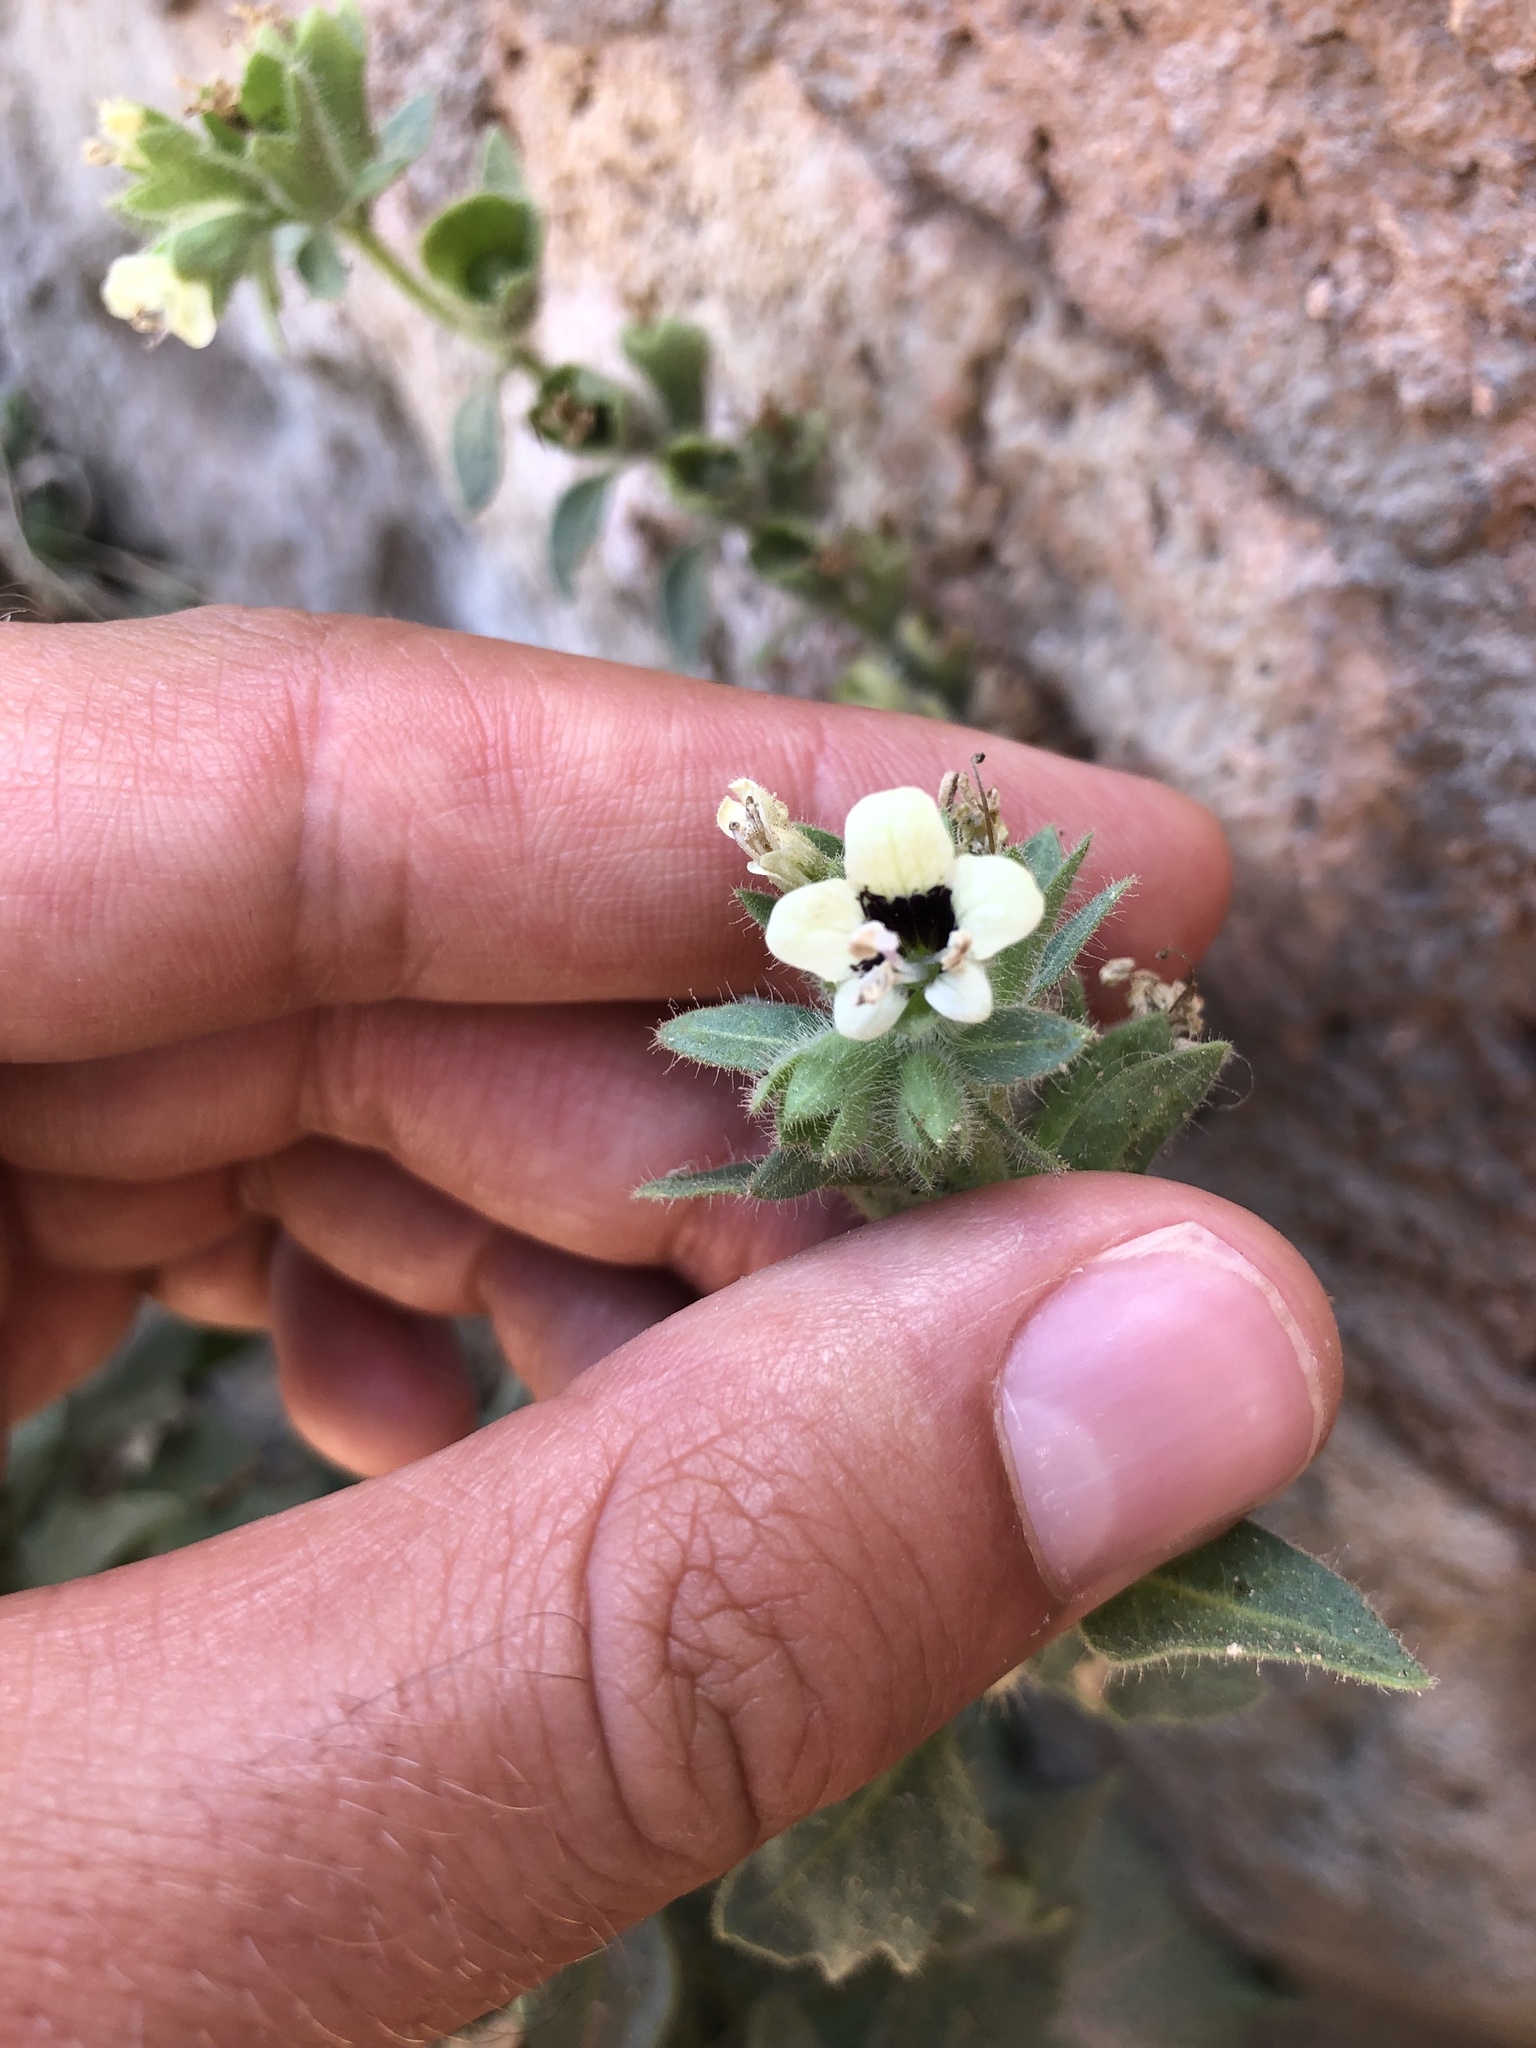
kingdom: Plantae
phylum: Tracheophyta
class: Magnoliopsida
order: Solanales
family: Solanaceae
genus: Hyoscyamus
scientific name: Hyoscyamus albus
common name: White henbane
